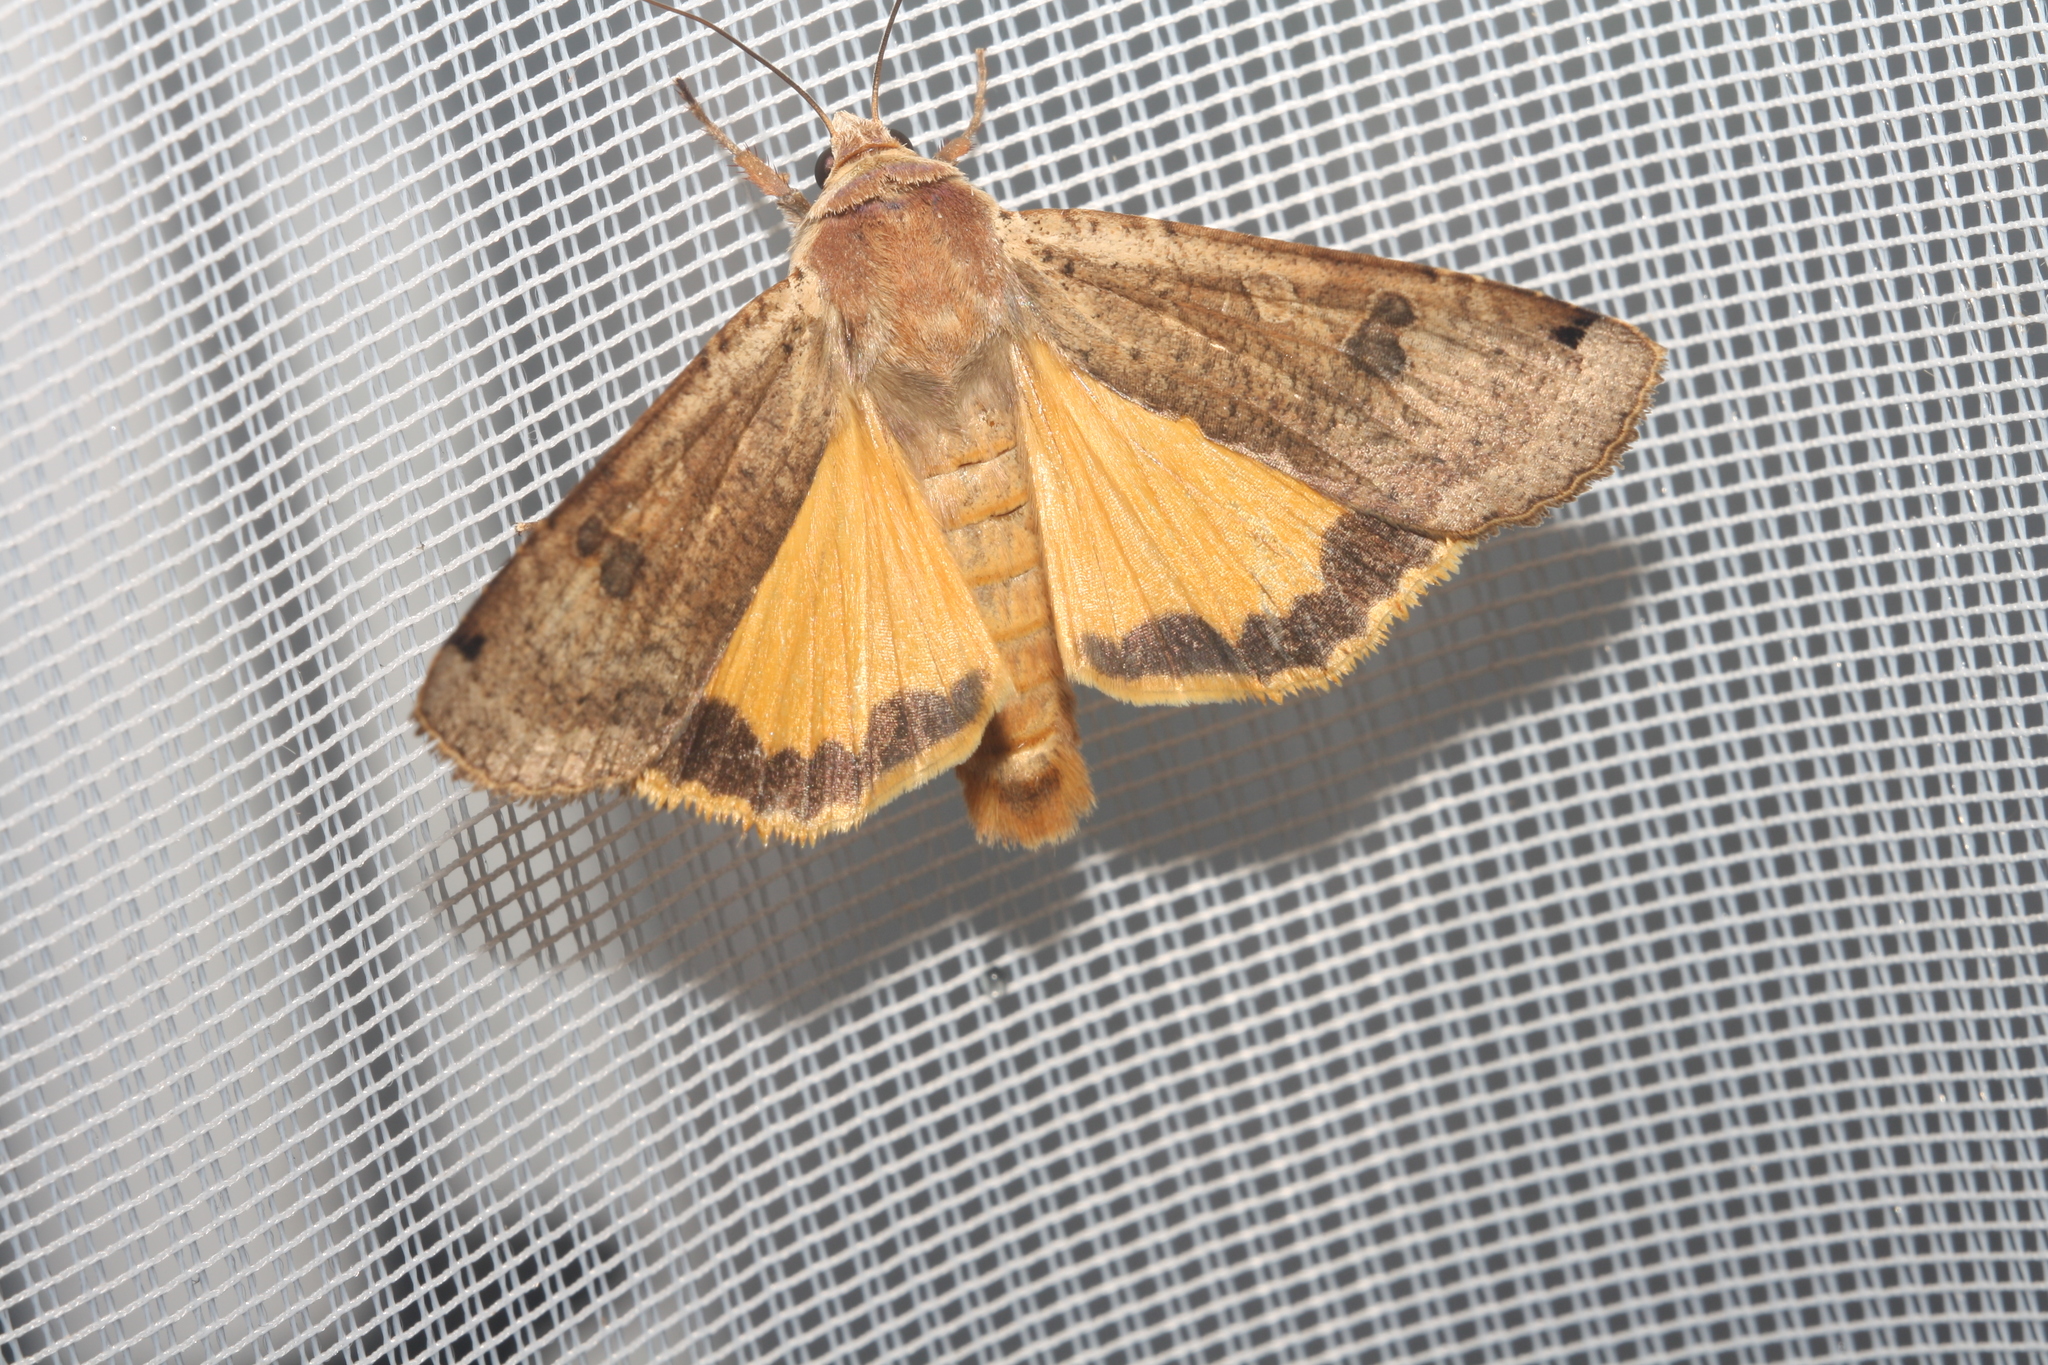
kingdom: Animalia
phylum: Arthropoda
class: Insecta
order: Lepidoptera
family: Noctuidae
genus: Noctua
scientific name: Noctua pronuba
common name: Large yellow underwing
